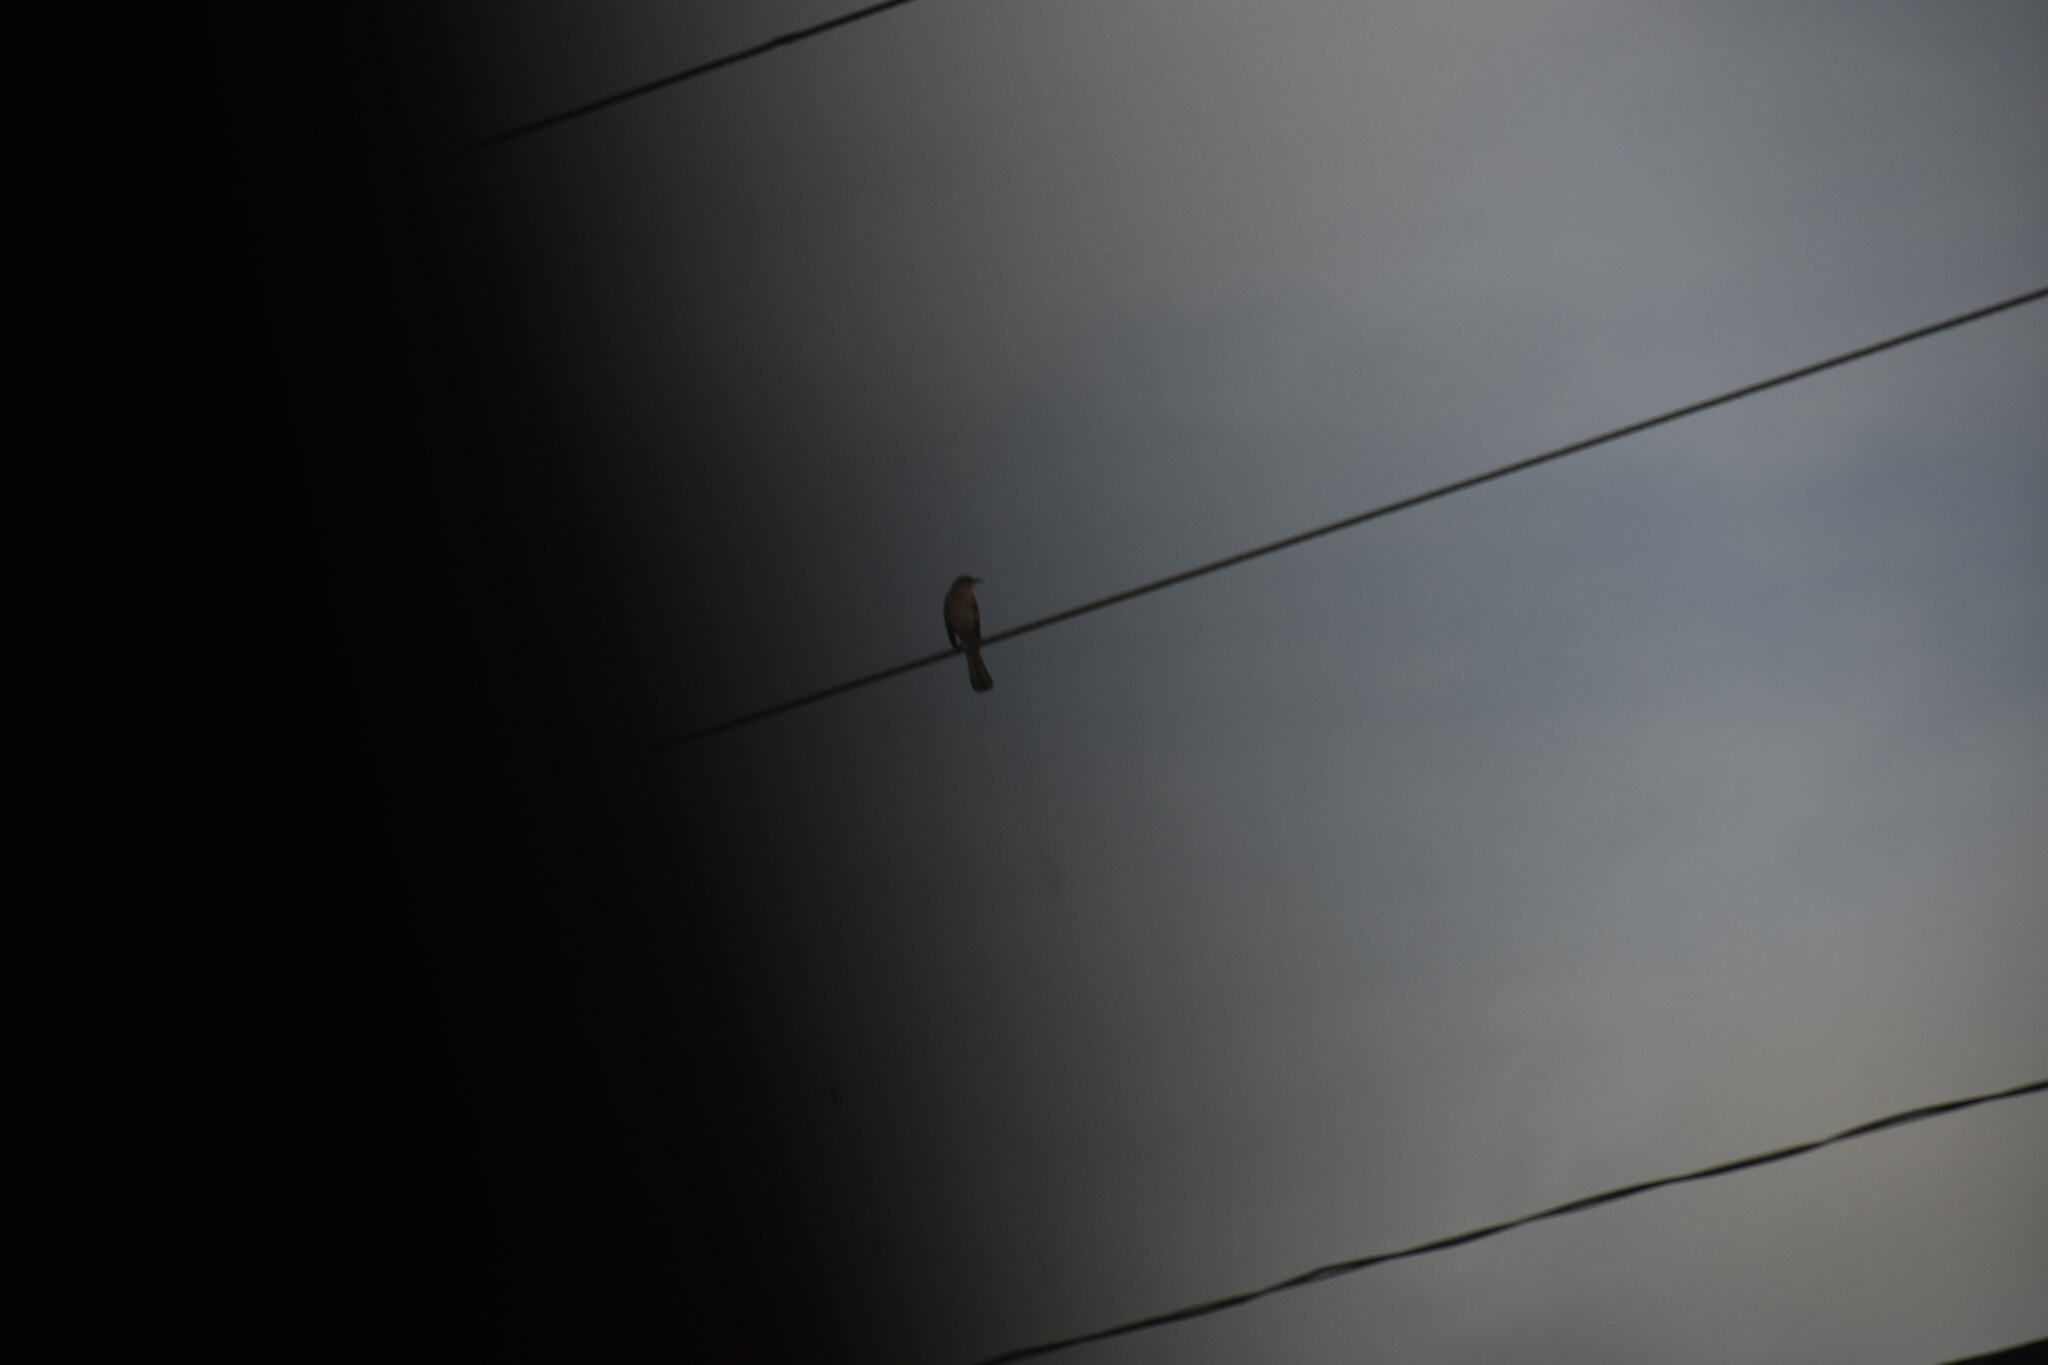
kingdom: Animalia
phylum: Chordata
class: Aves
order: Passeriformes
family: Mimidae
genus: Mimus
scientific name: Mimus polyglottos
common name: Northern mockingbird
